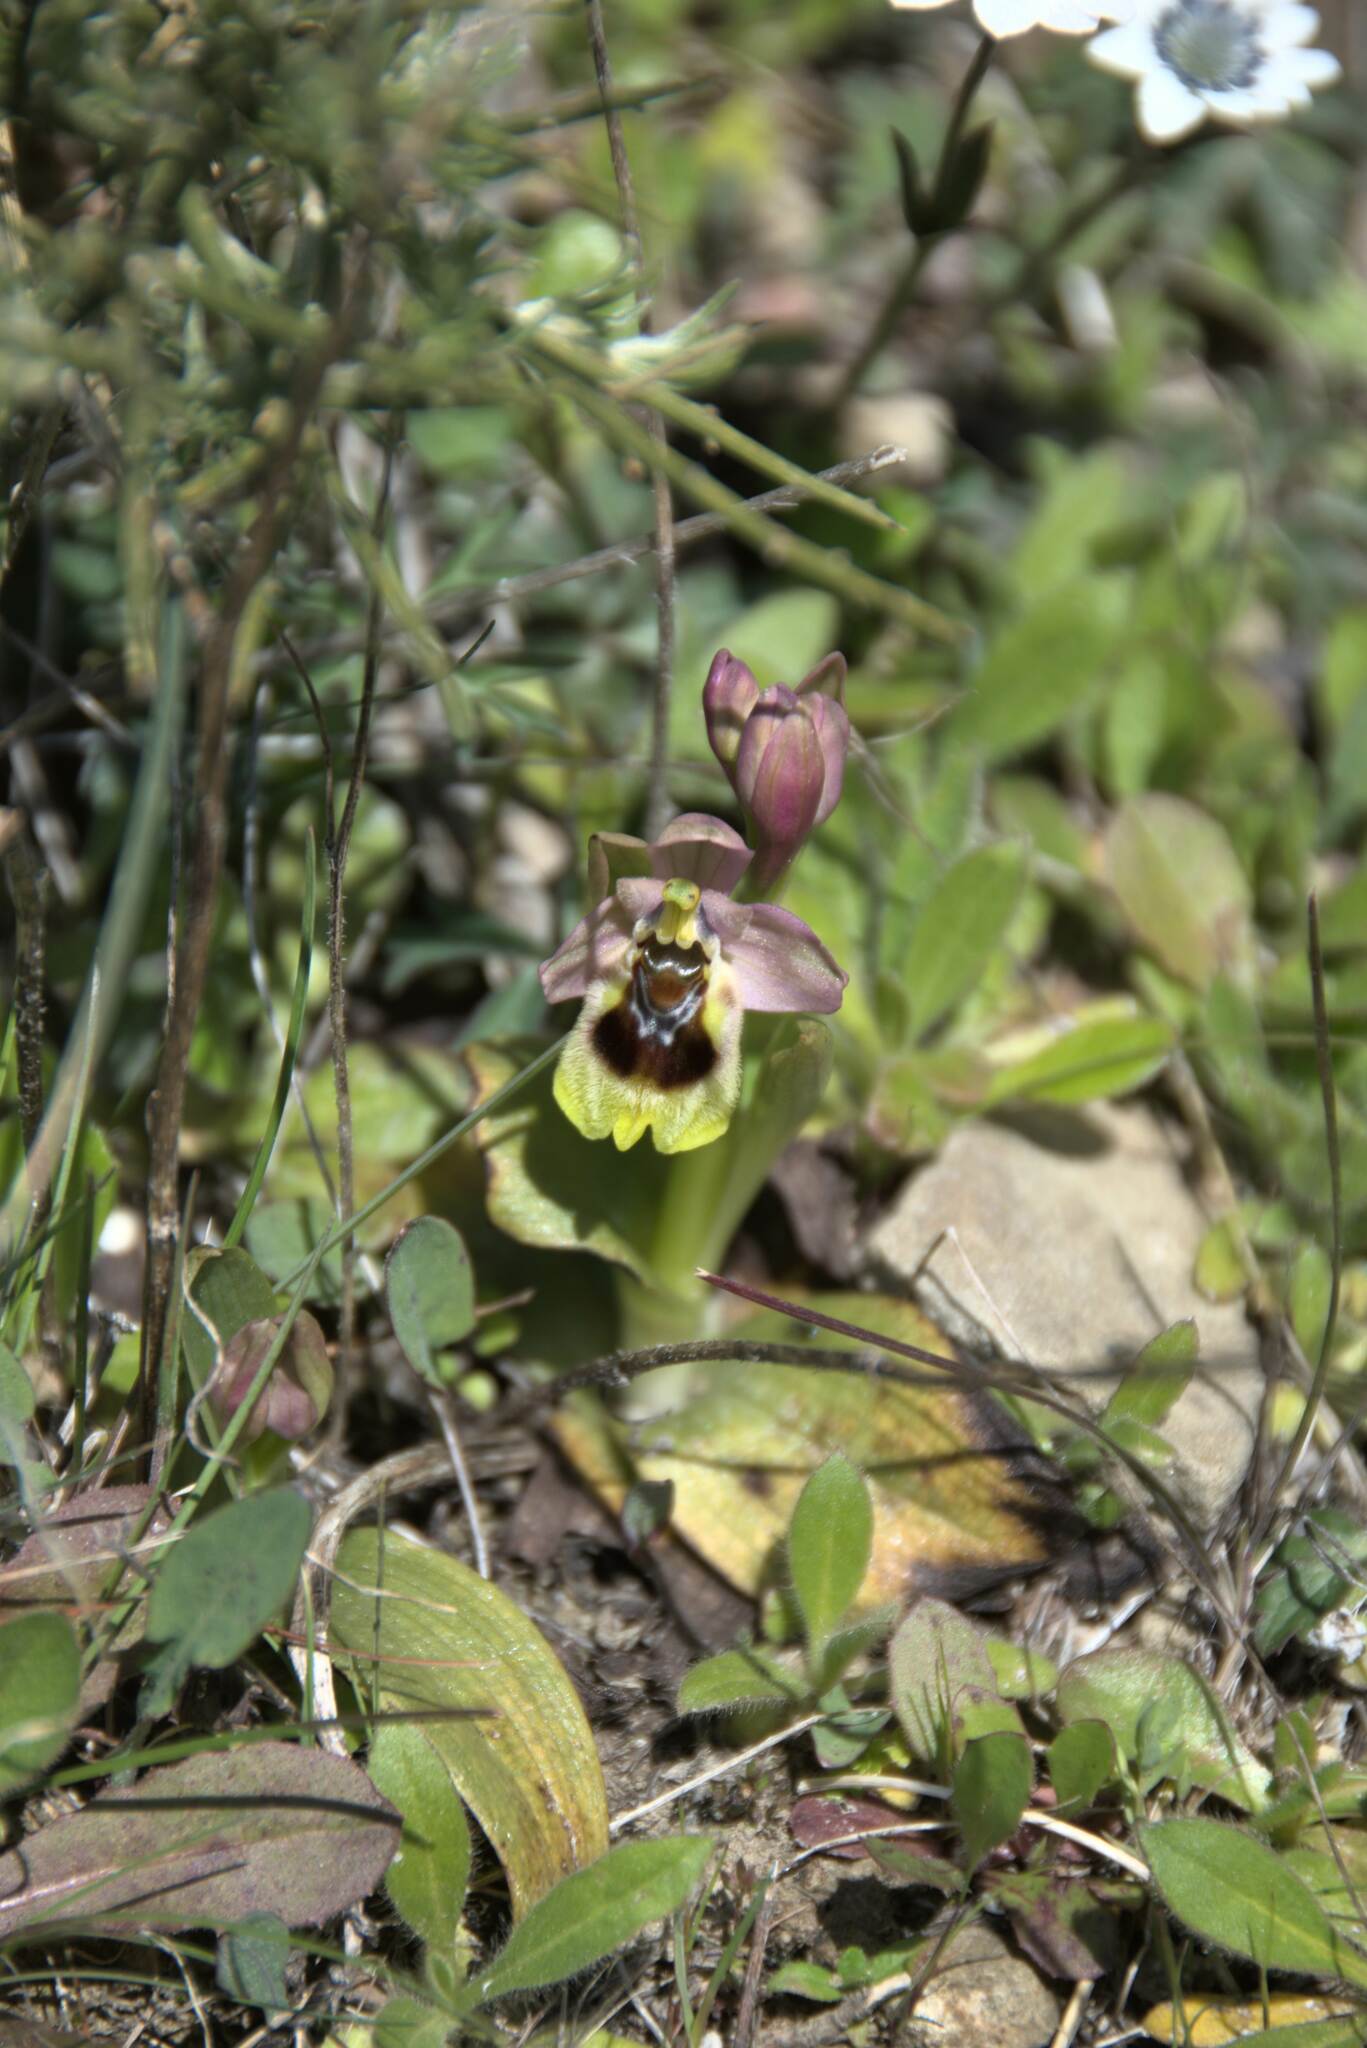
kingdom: Plantae
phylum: Tracheophyta
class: Liliopsida
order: Asparagales
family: Orchidaceae
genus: Ophrys
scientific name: Ophrys tenthredinifera
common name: Sawfly orchid
